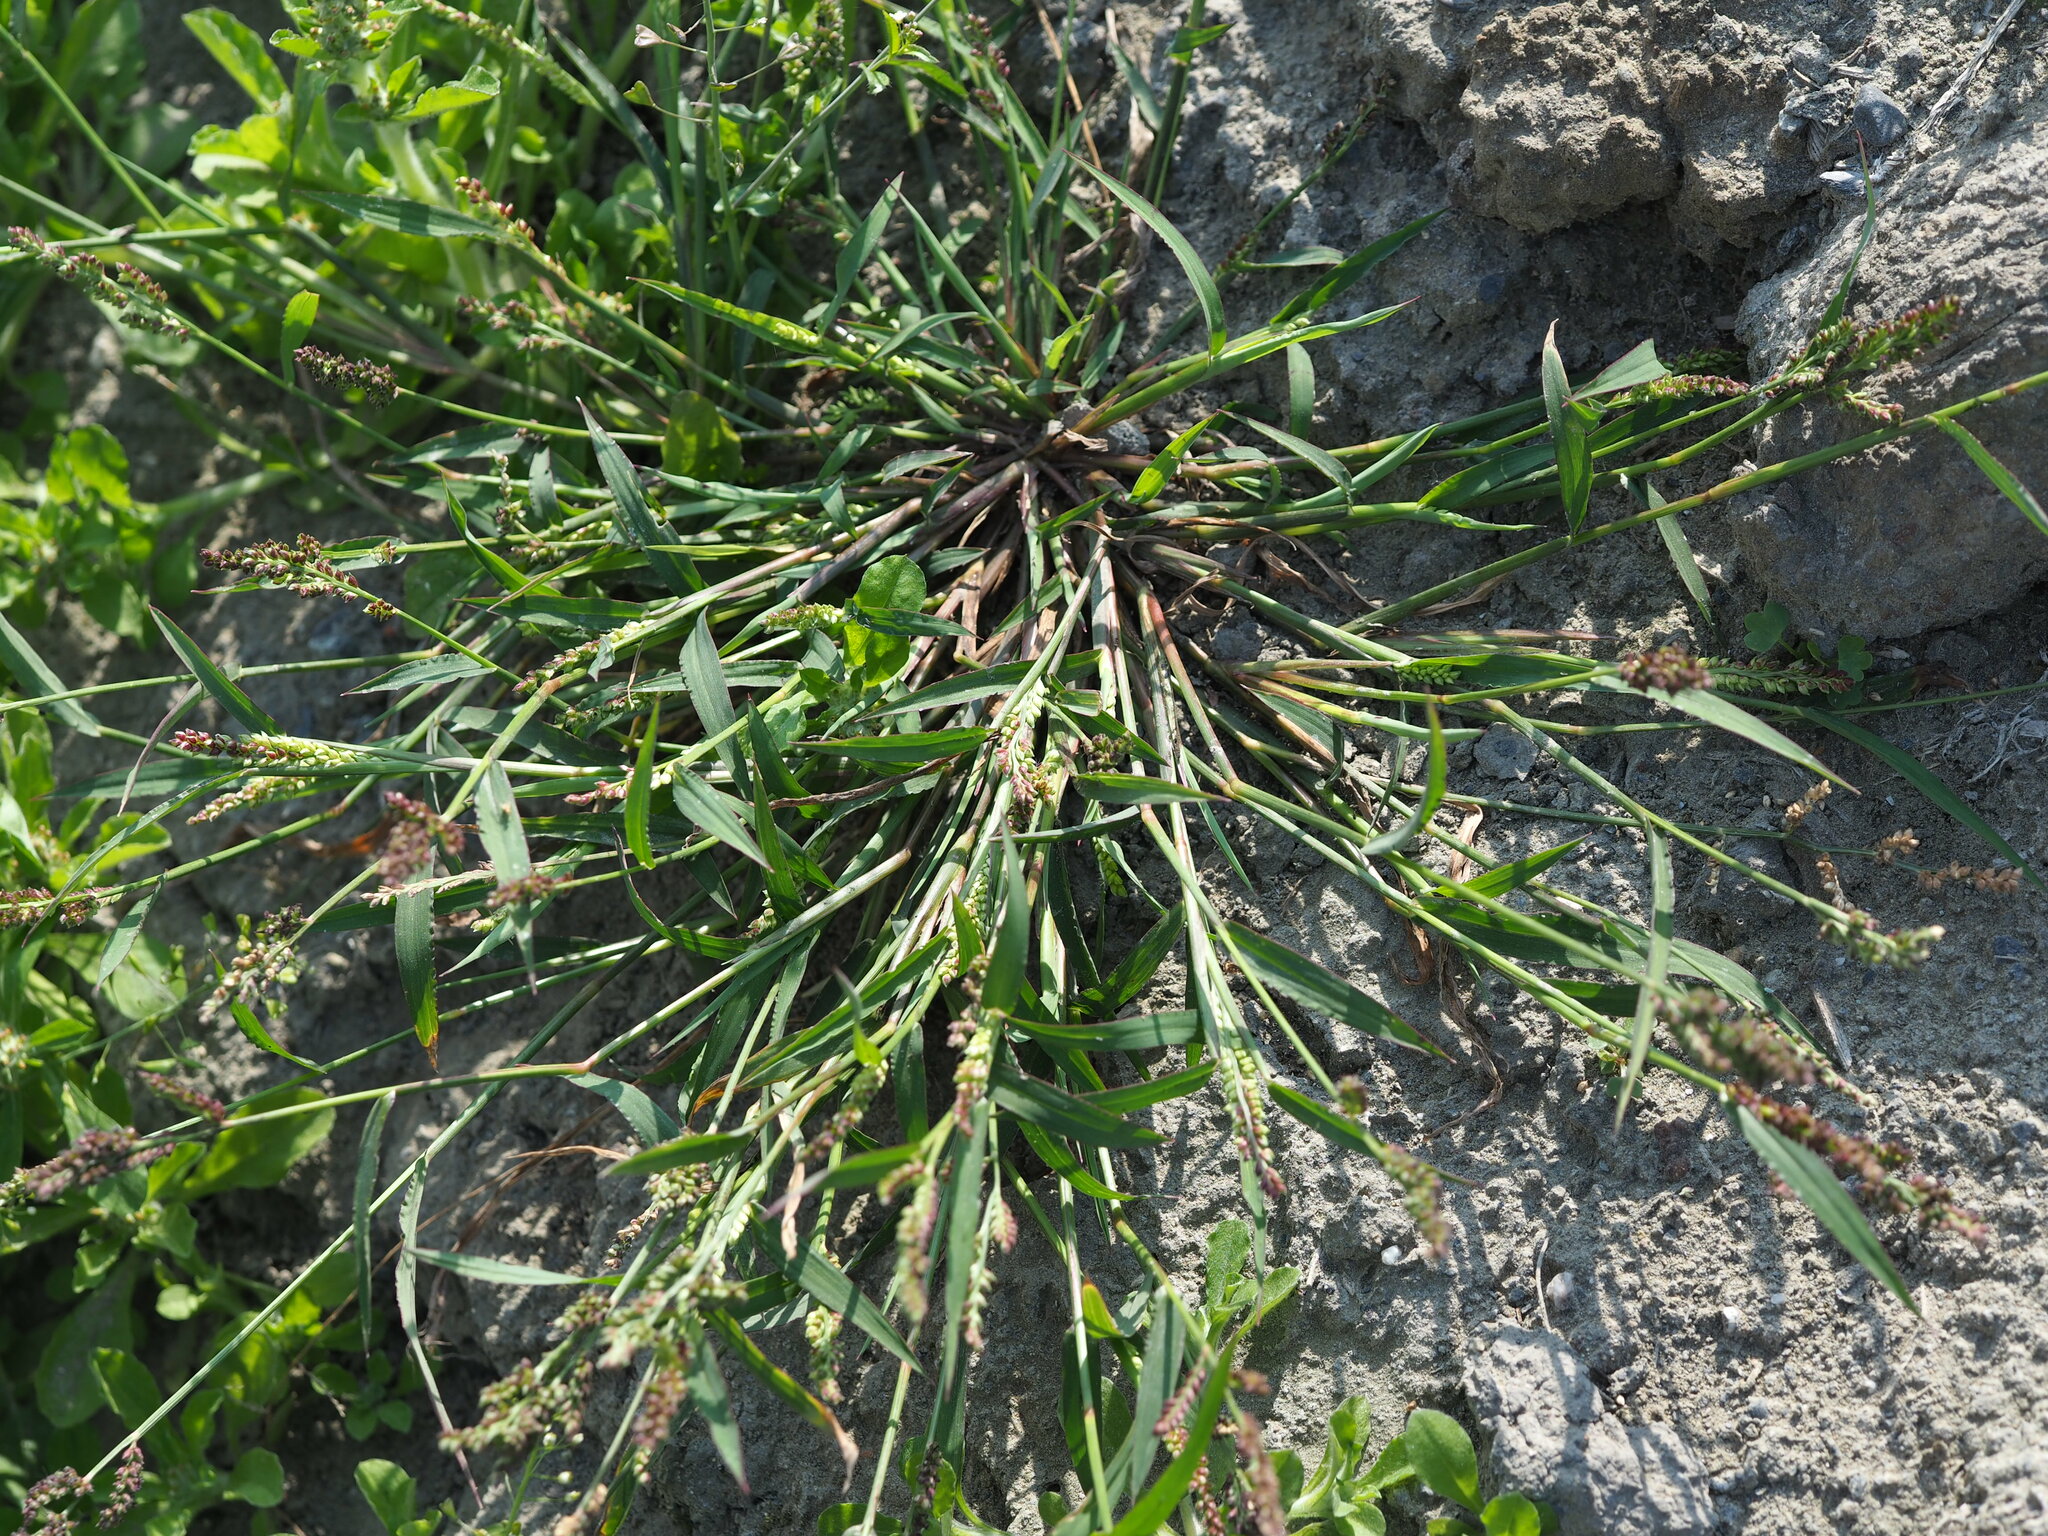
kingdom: Plantae
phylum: Tracheophyta
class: Liliopsida
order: Poales
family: Poaceae
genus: Echinochloa
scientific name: Echinochloa colonum
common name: Jungle rice
